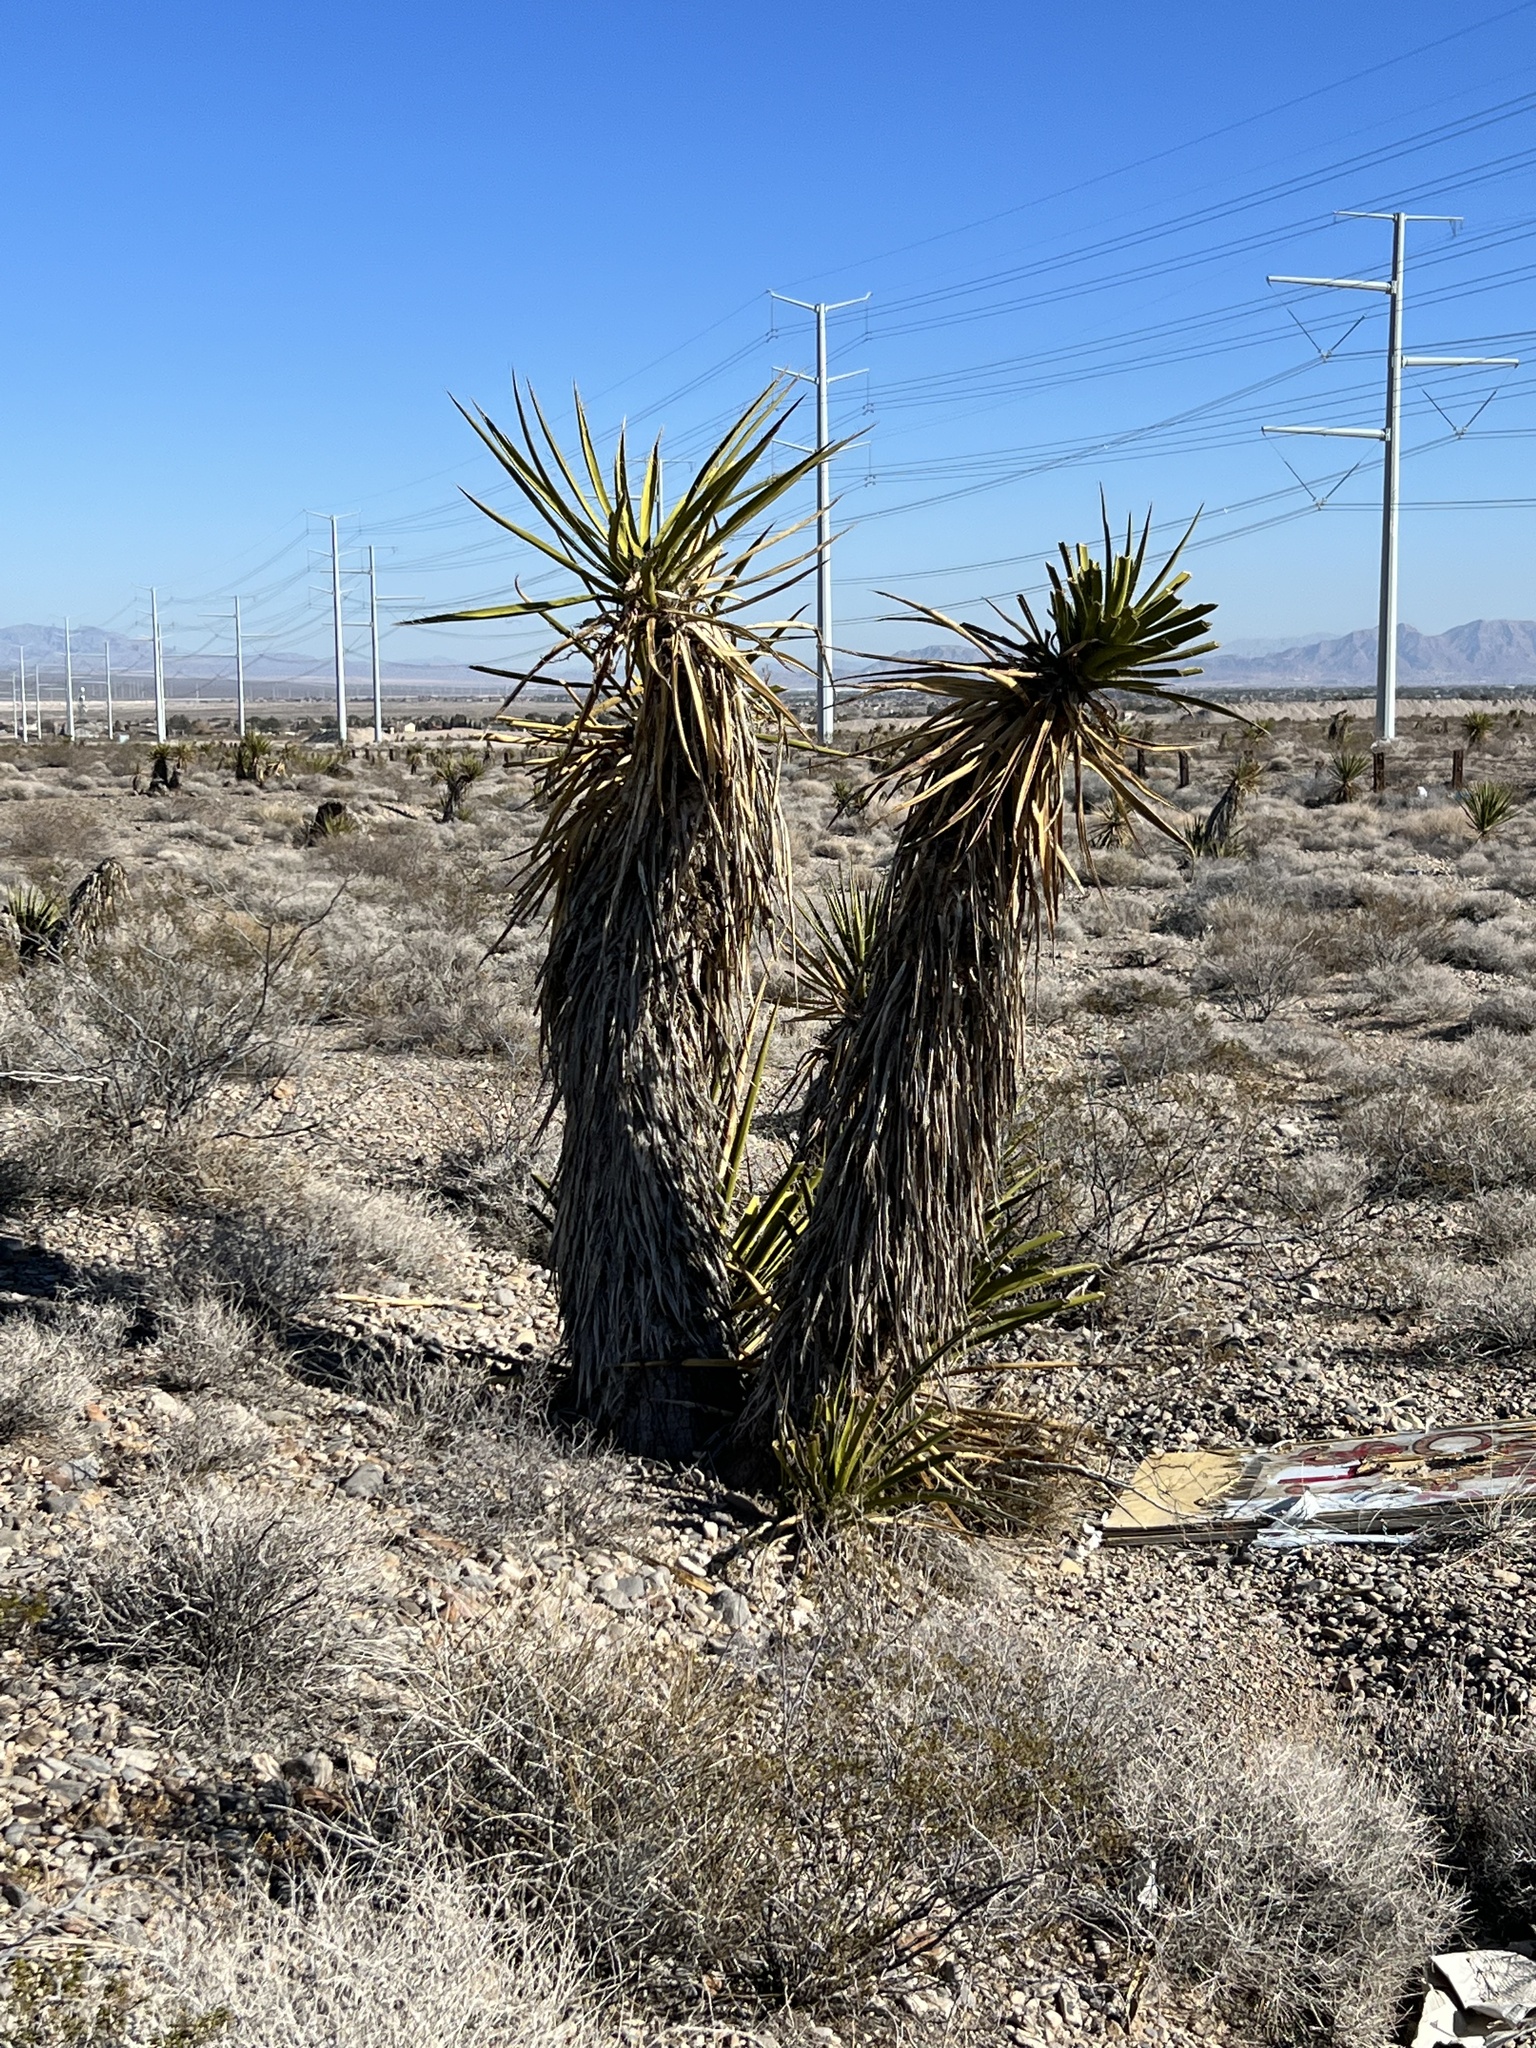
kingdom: Plantae
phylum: Tracheophyta
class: Liliopsida
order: Asparagales
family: Asparagaceae
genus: Yucca
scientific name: Yucca schidigera
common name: Mojave yucca
